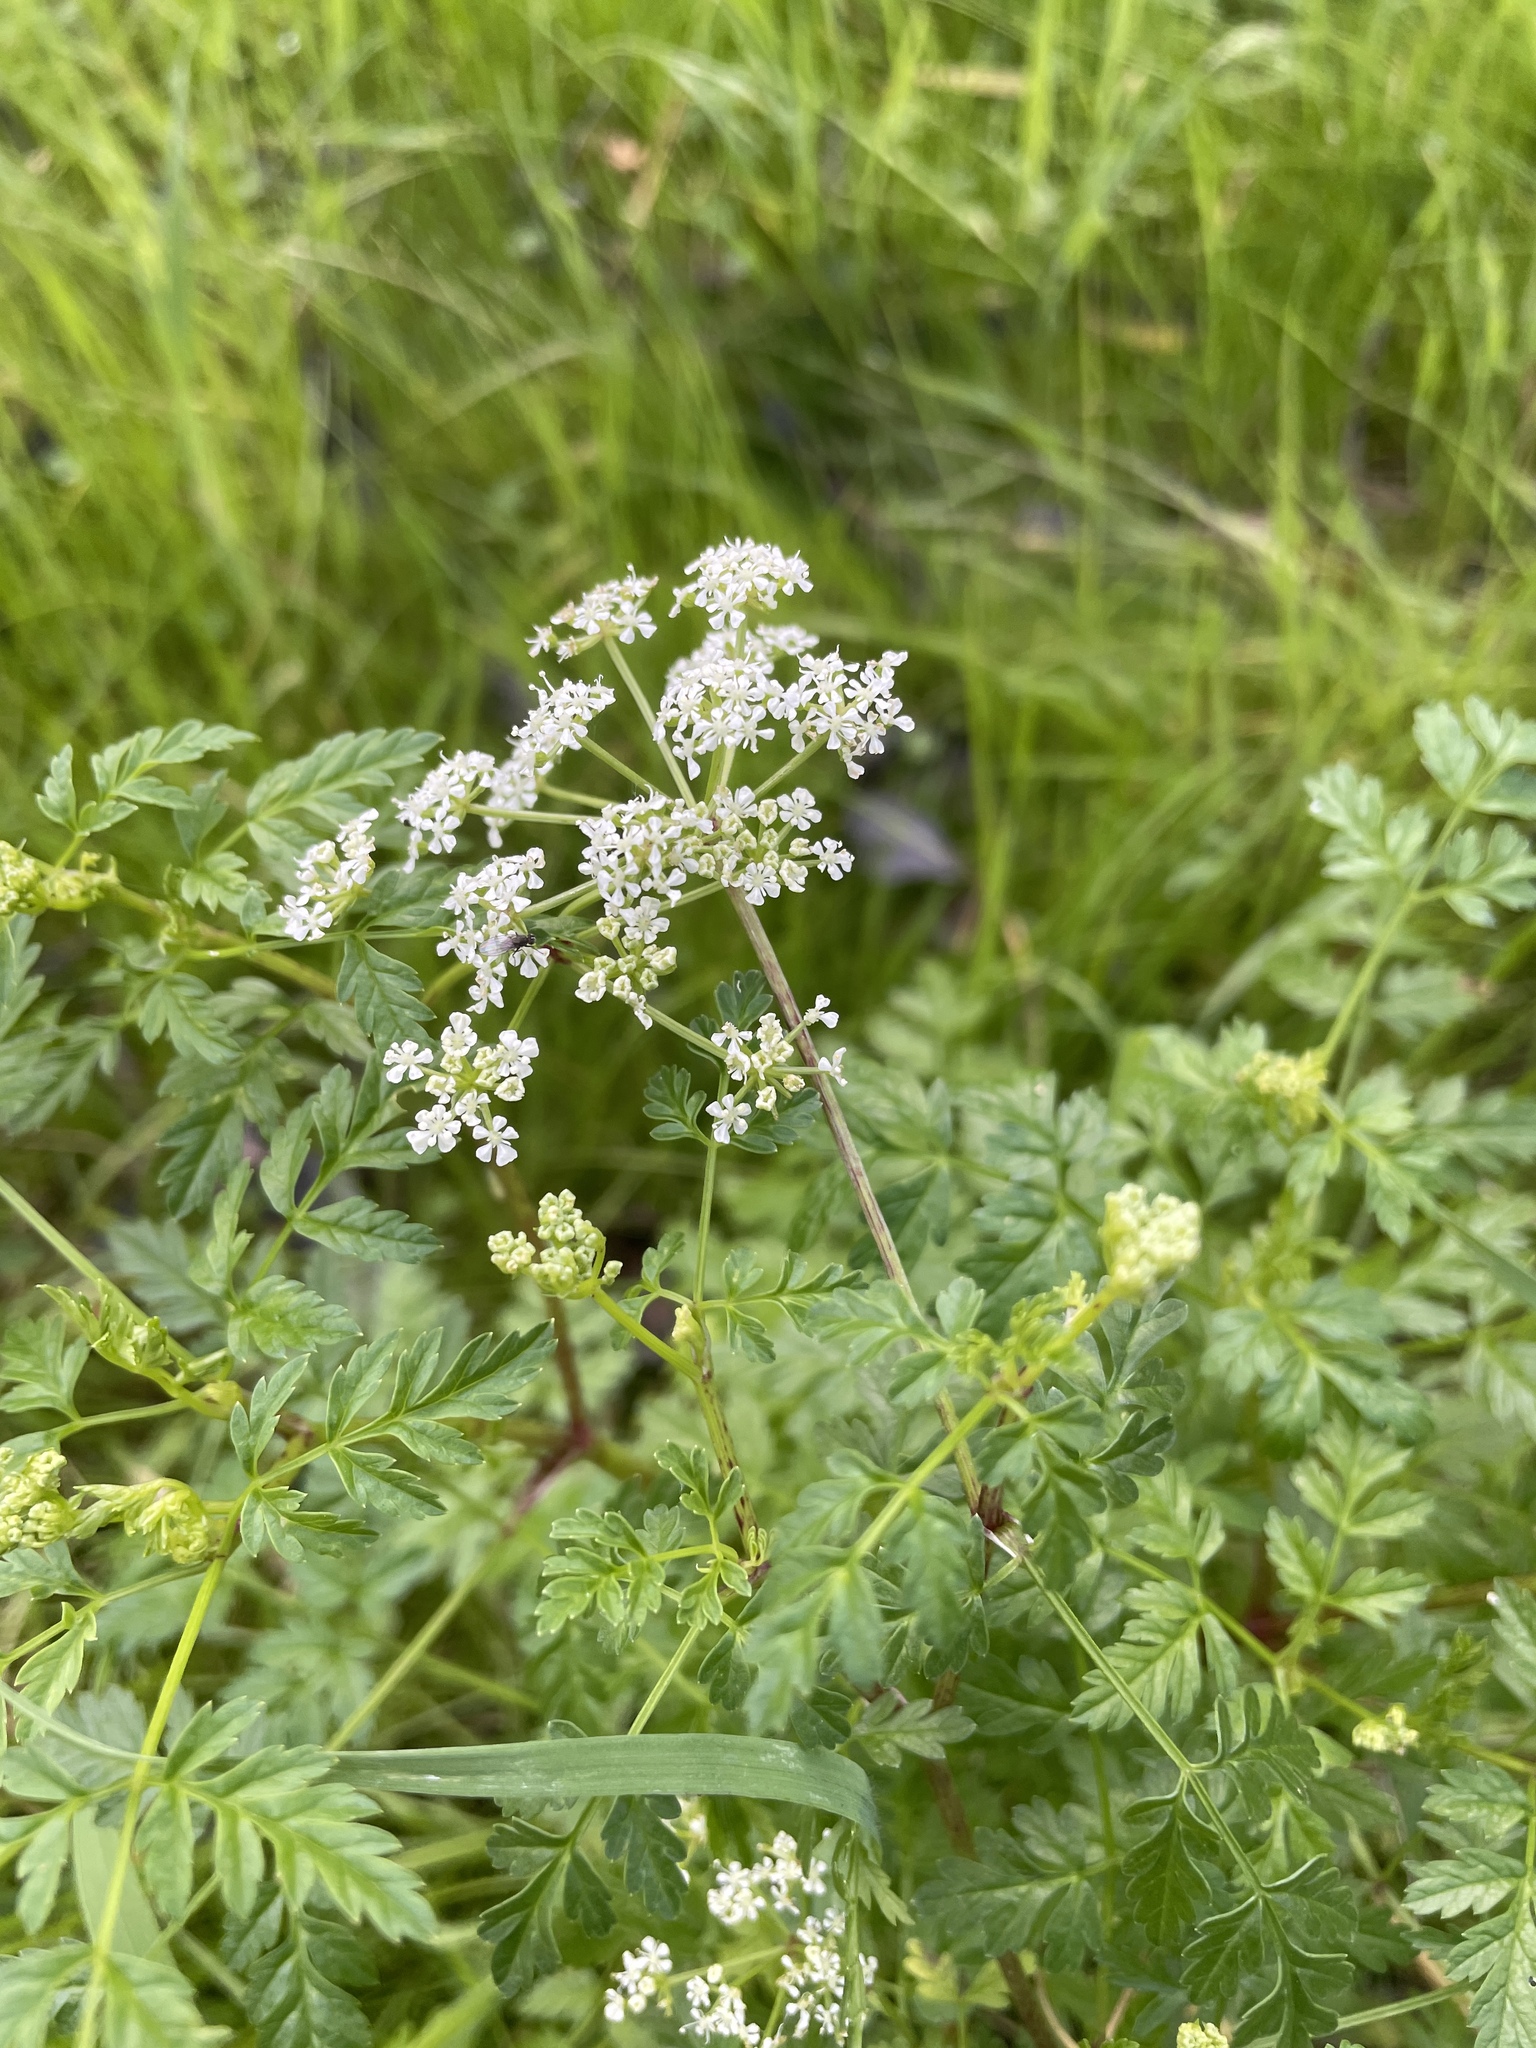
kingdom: Plantae
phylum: Tracheophyta
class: Magnoliopsida
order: Apiales
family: Apiaceae
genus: Conium
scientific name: Conium maculatum
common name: Hemlock
